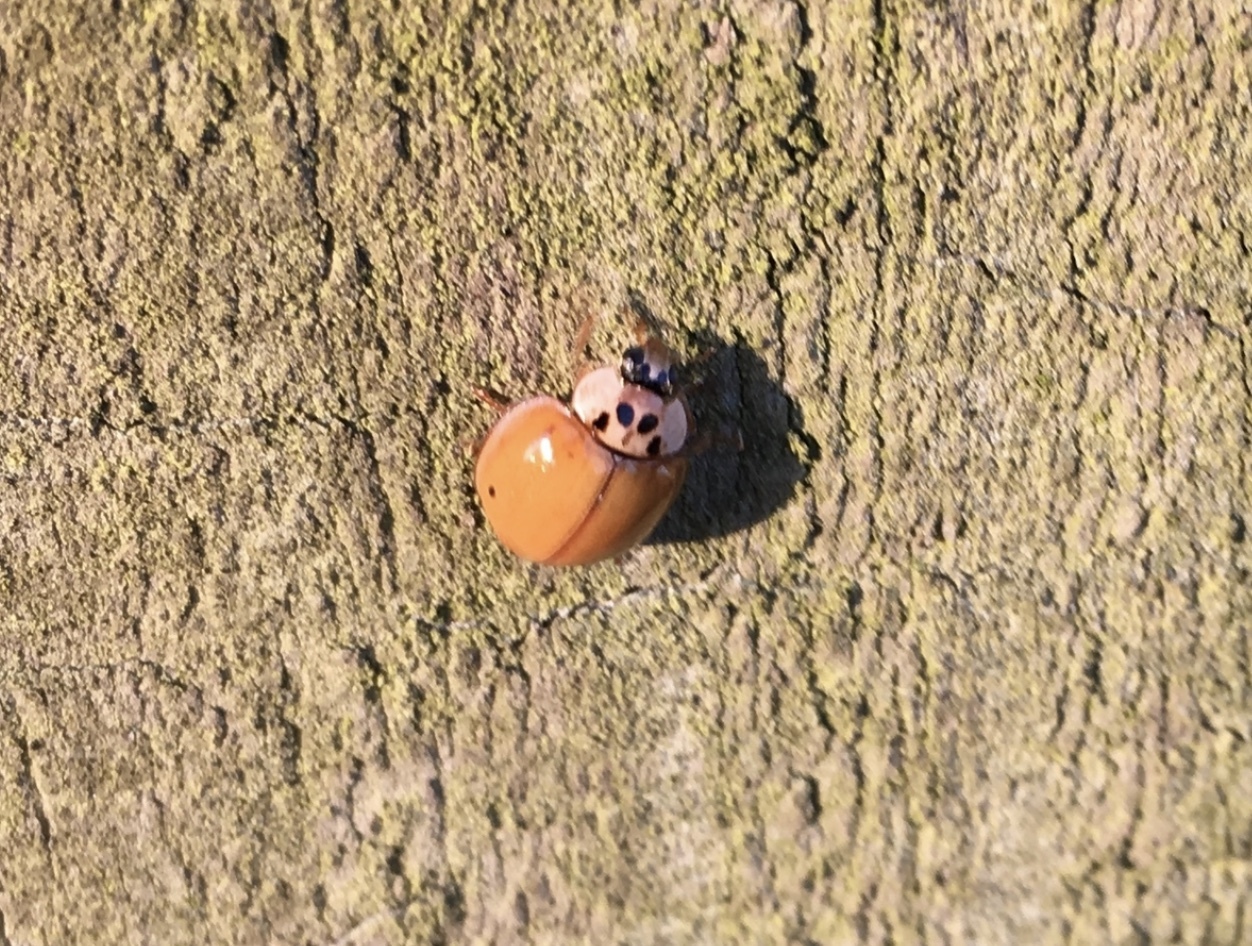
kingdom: Animalia
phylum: Arthropoda
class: Insecta
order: Coleoptera
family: Coccinellidae
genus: Harmonia
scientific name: Harmonia axyridis
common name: Harlequin ladybird
